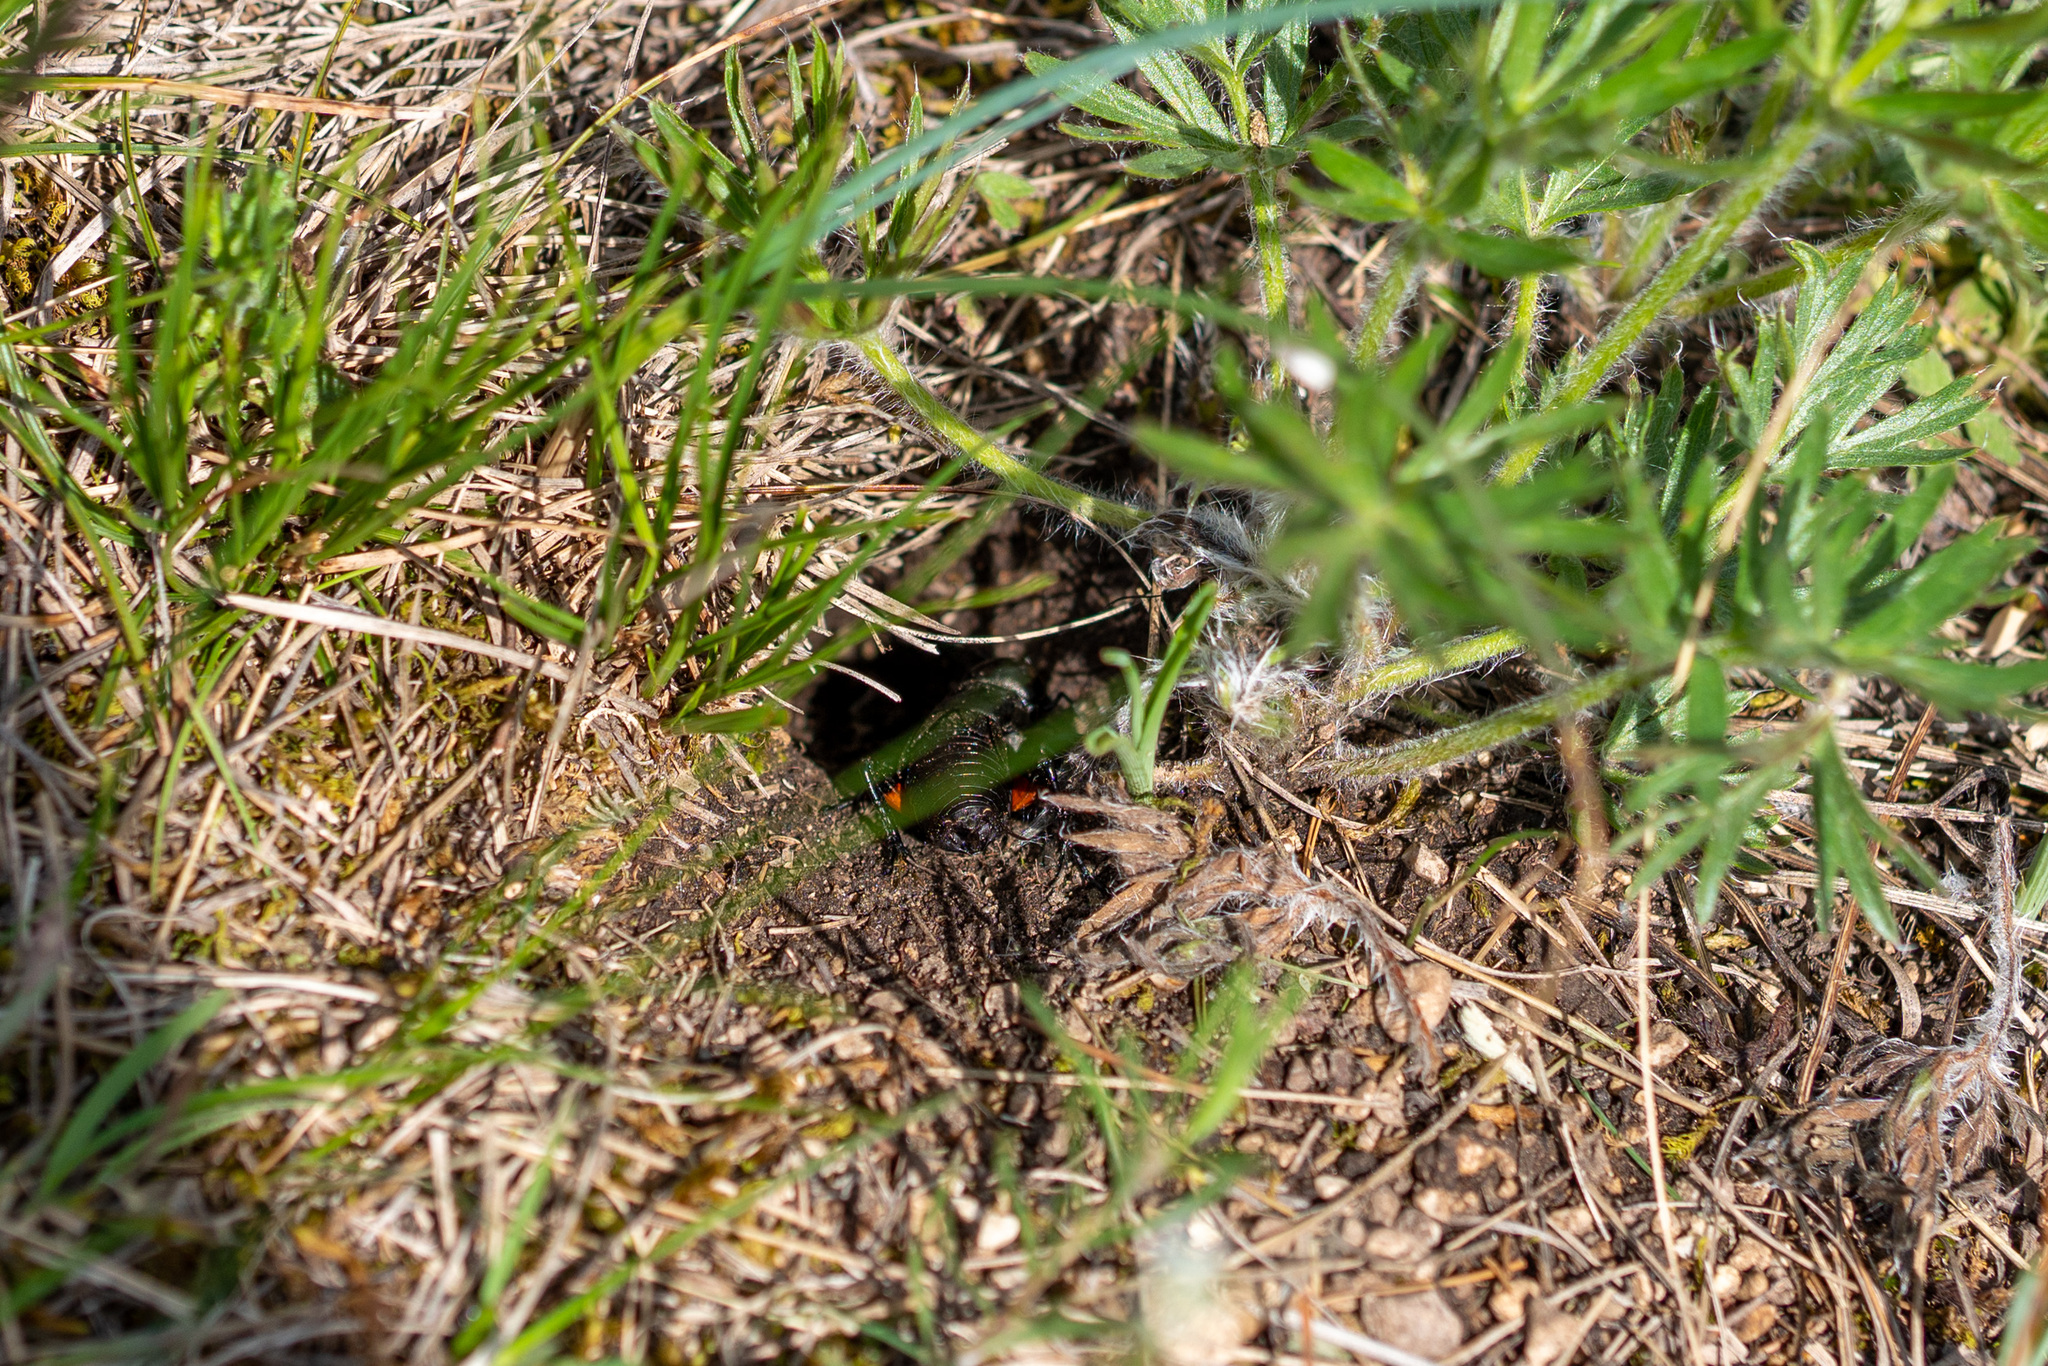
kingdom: Animalia
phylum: Arthropoda
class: Insecta
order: Orthoptera
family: Gryllidae
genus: Gryllus
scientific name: Gryllus campestris
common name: Field cricket
